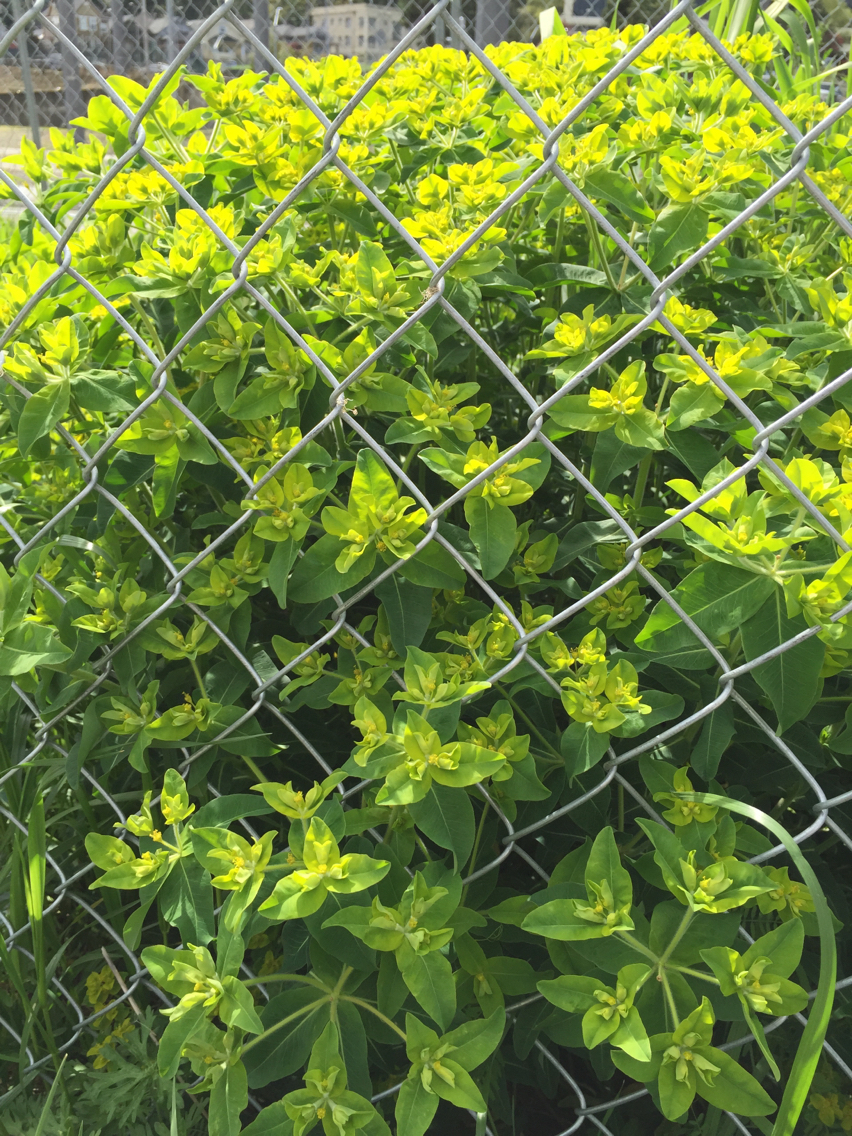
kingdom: Plantae
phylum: Tracheophyta
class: Magnoliopsida
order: Malpighiales
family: Euphorbiaceae
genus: Euphorbia
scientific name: Euphorbia oblongata
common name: Balkan spurge
